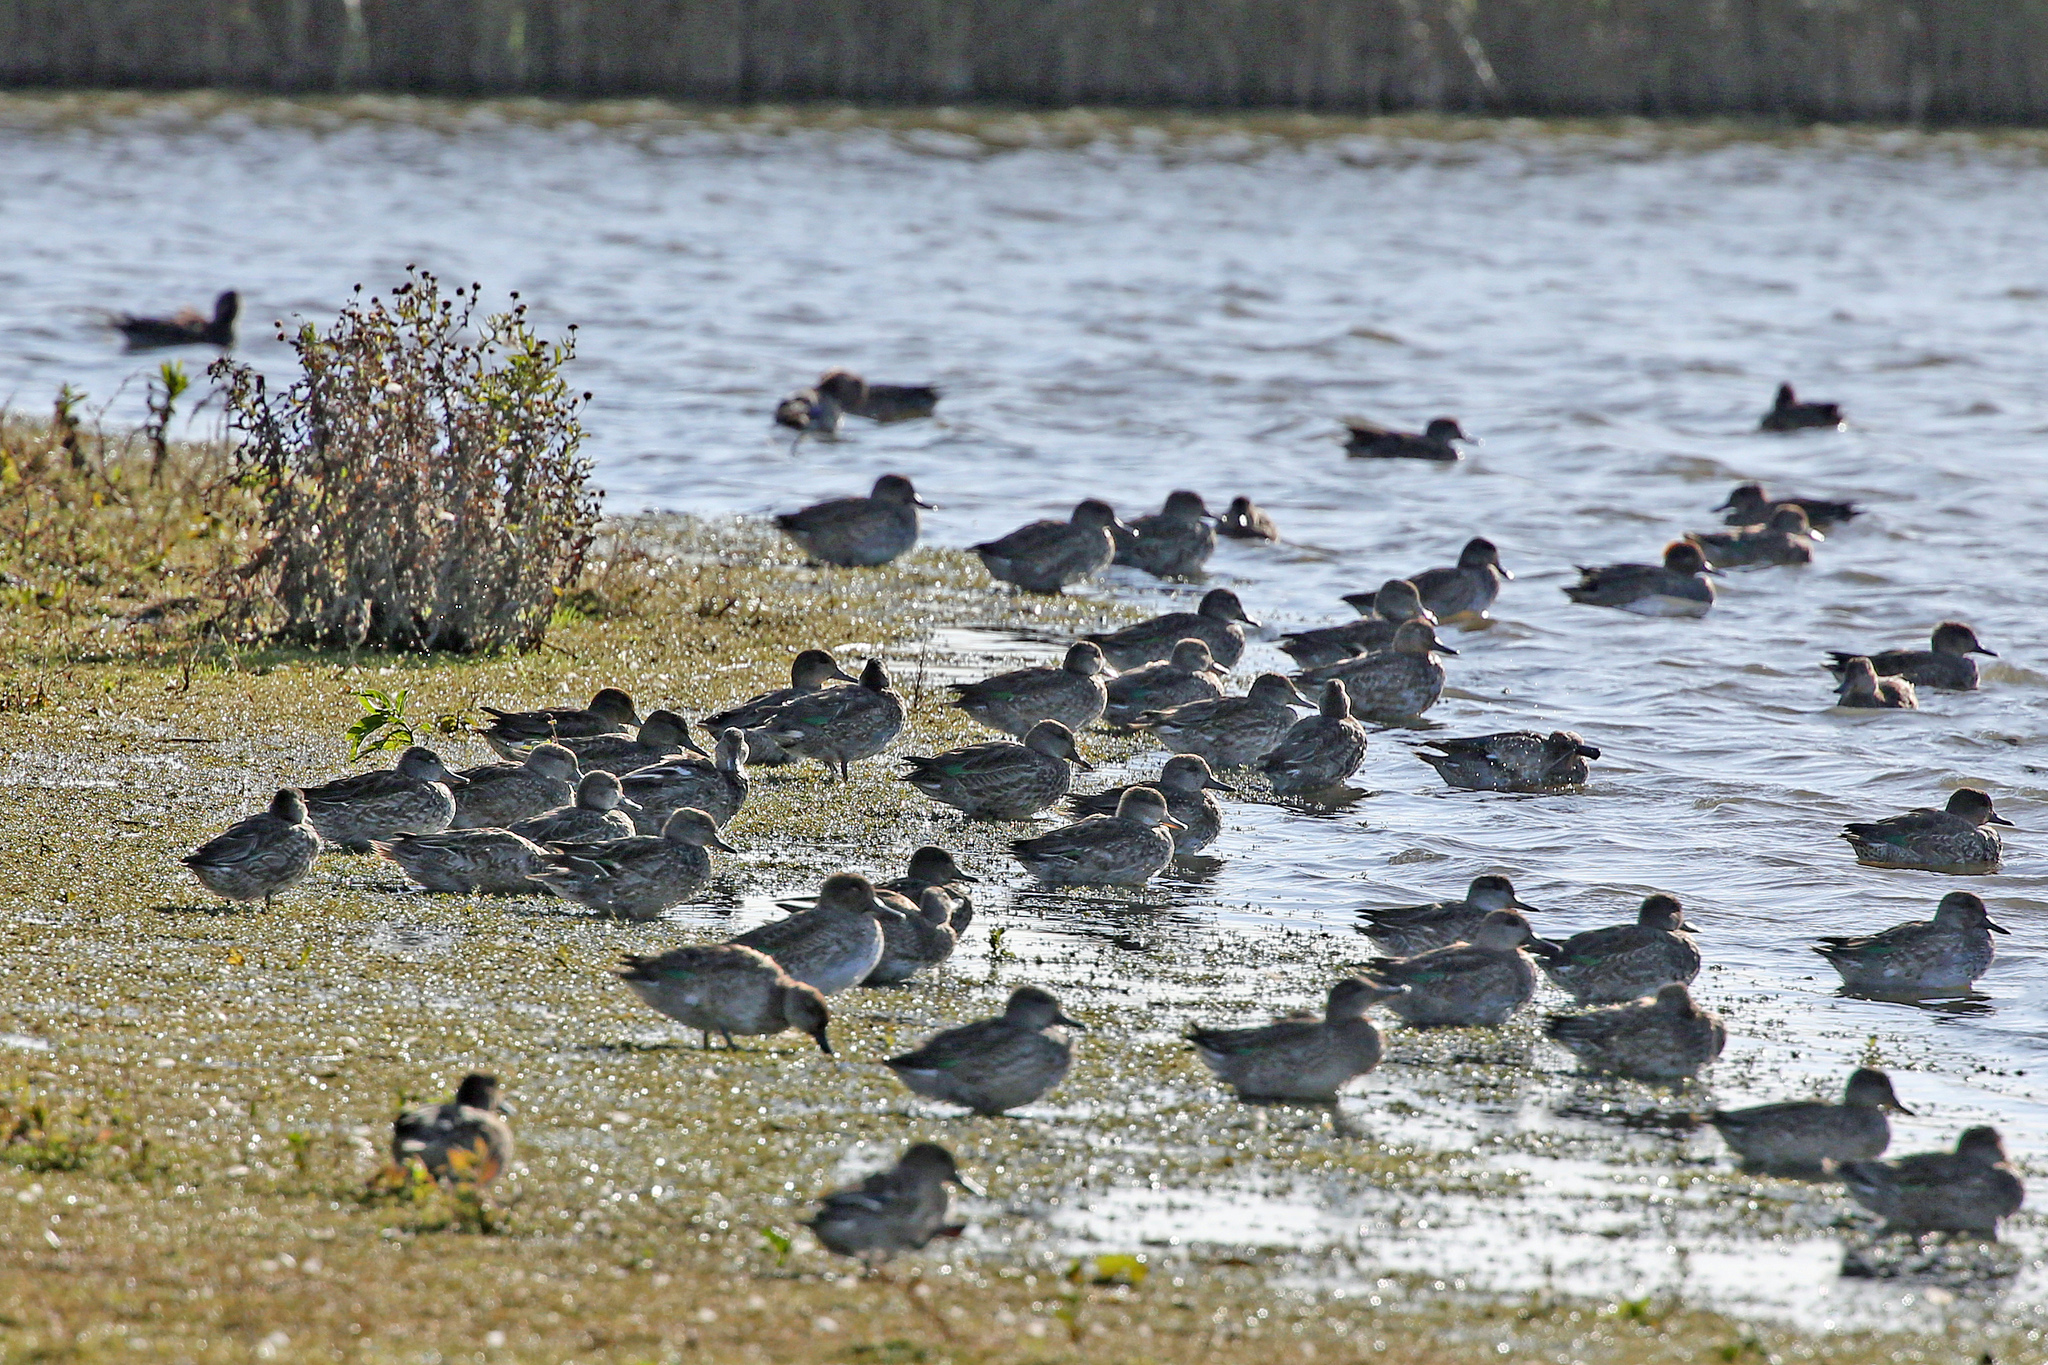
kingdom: Animalia
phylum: Chordata
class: Aves
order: Anseriformes
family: Anatidae
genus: Anas
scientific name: Anas crecca
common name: Eurasian teal
